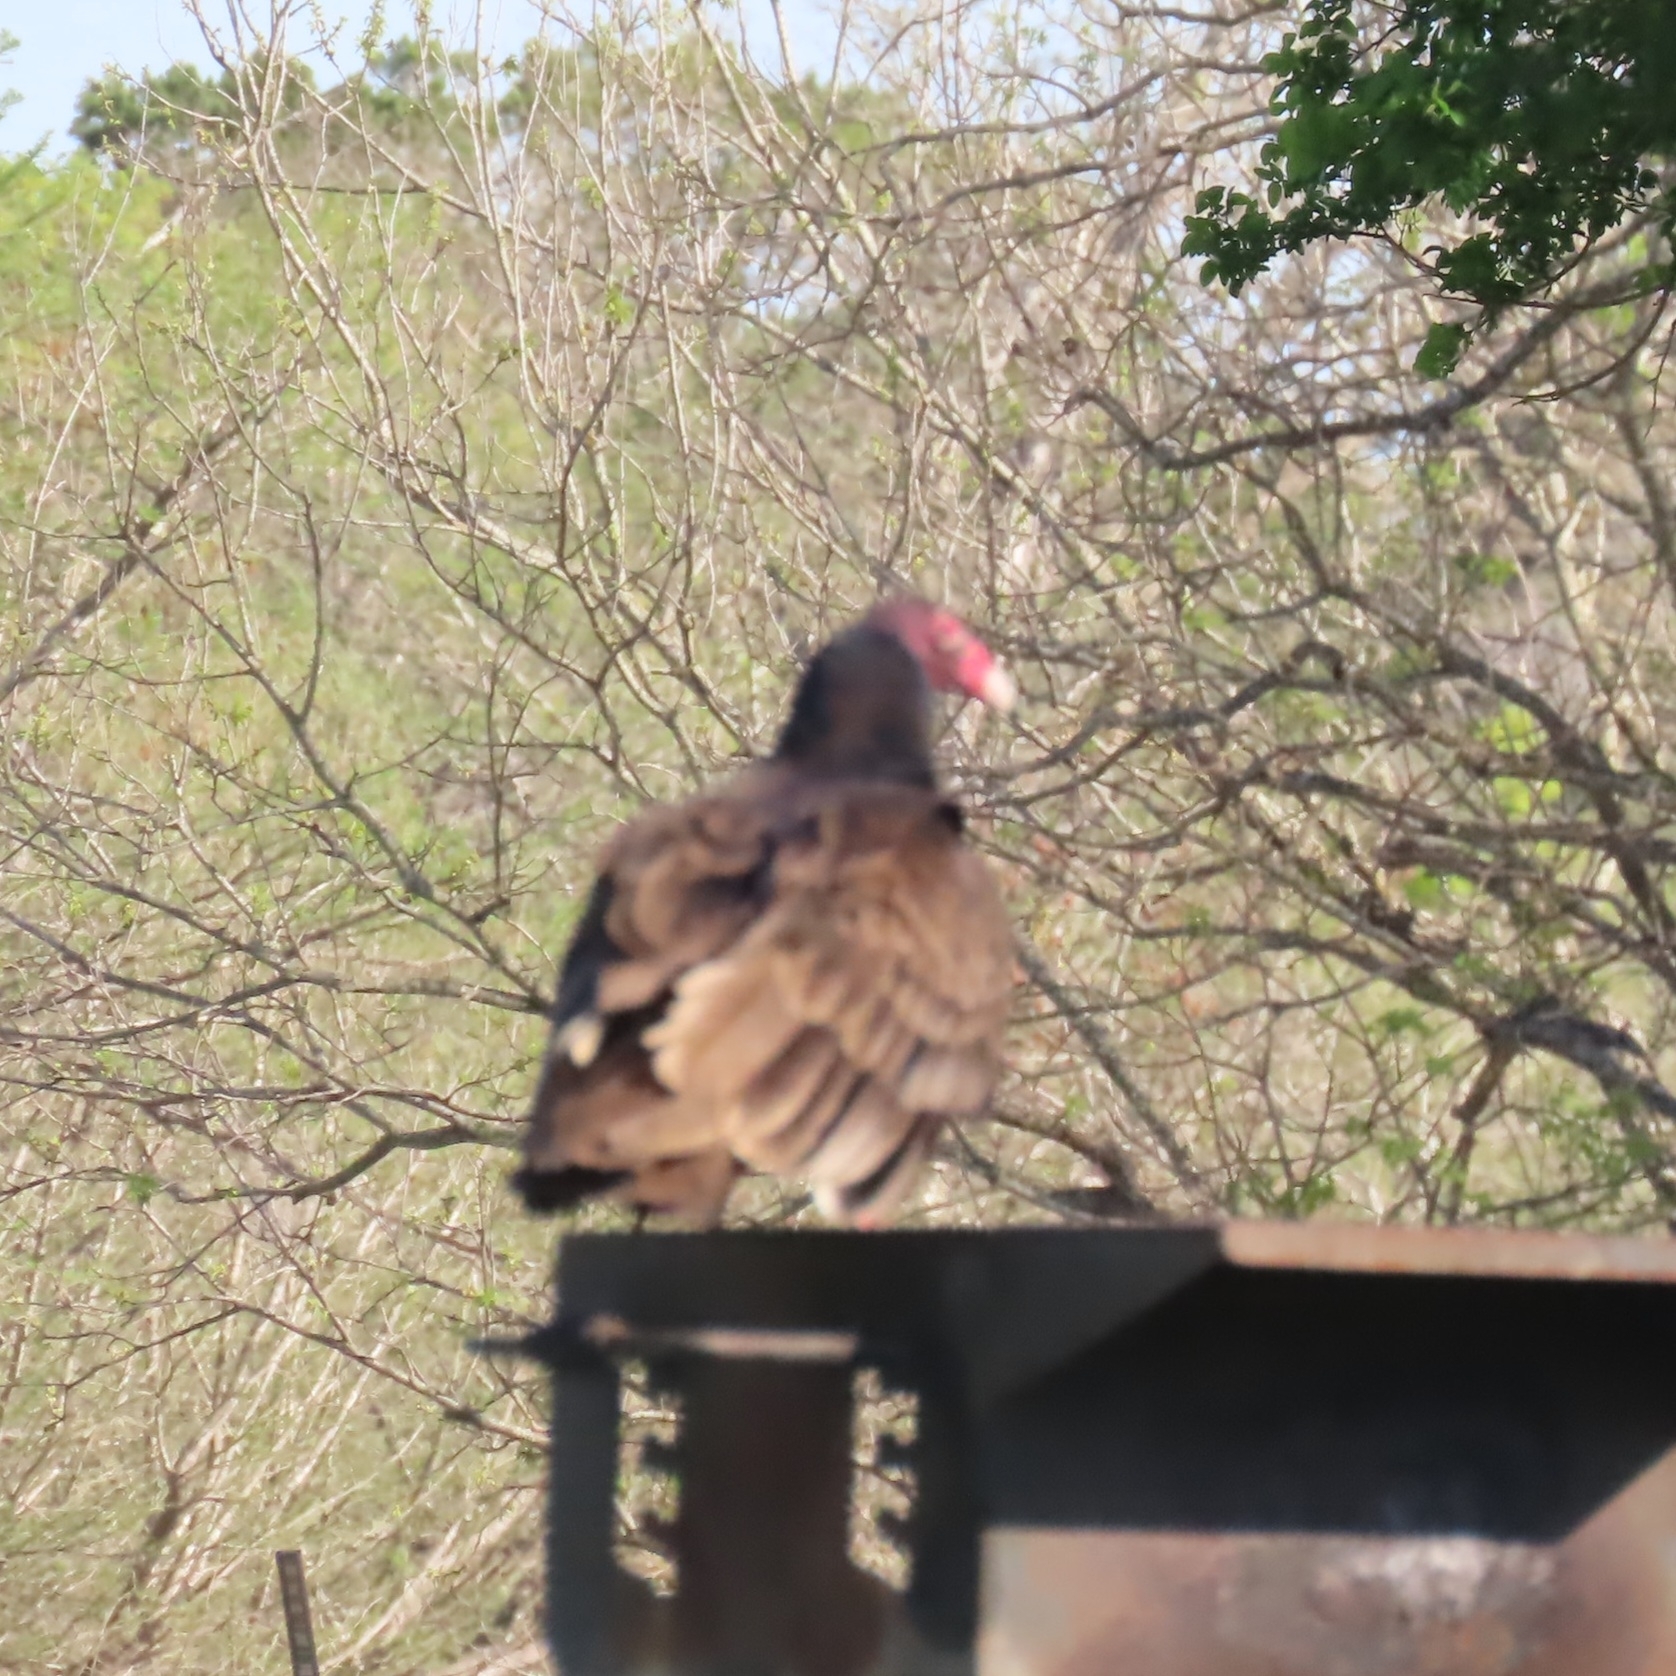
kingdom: Animalia
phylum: Chordata
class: Aves
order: Accipitriformes
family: Cathartidae
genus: Cathartes
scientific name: Cathartes aura
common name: Turkey vulture
